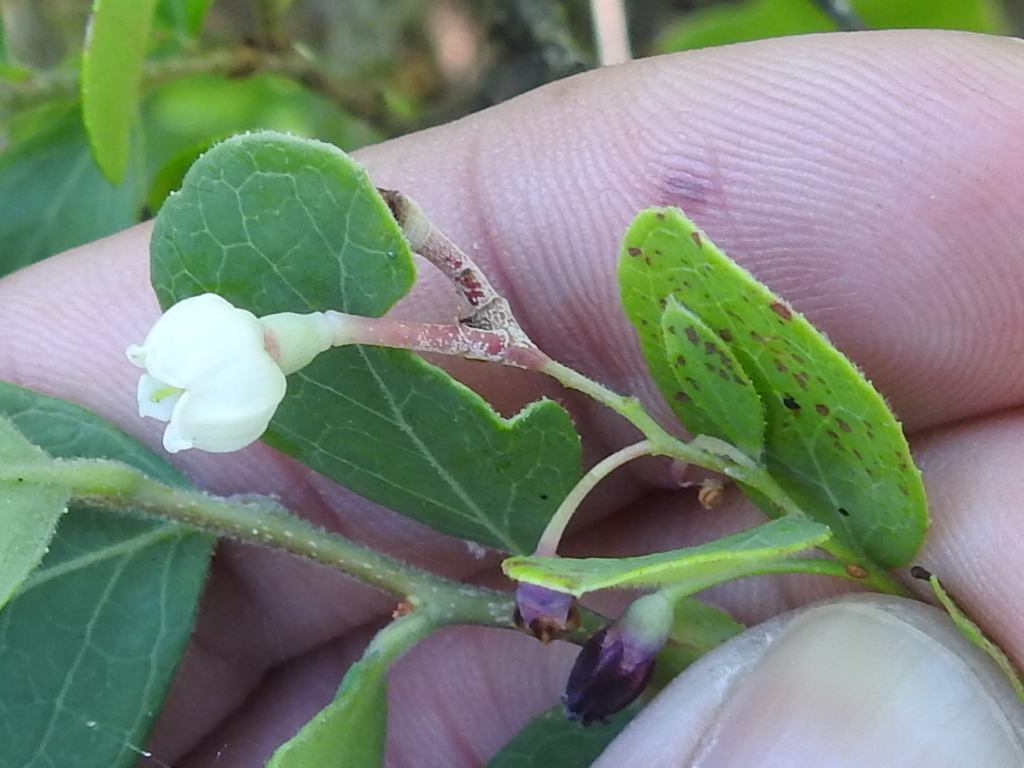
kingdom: Plantae
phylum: Tracheophyta
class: Magnoliopsida
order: Ericales
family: Ericaceae
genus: Vaccinium
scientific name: Vaccinium arboreum
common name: Farkleberry
